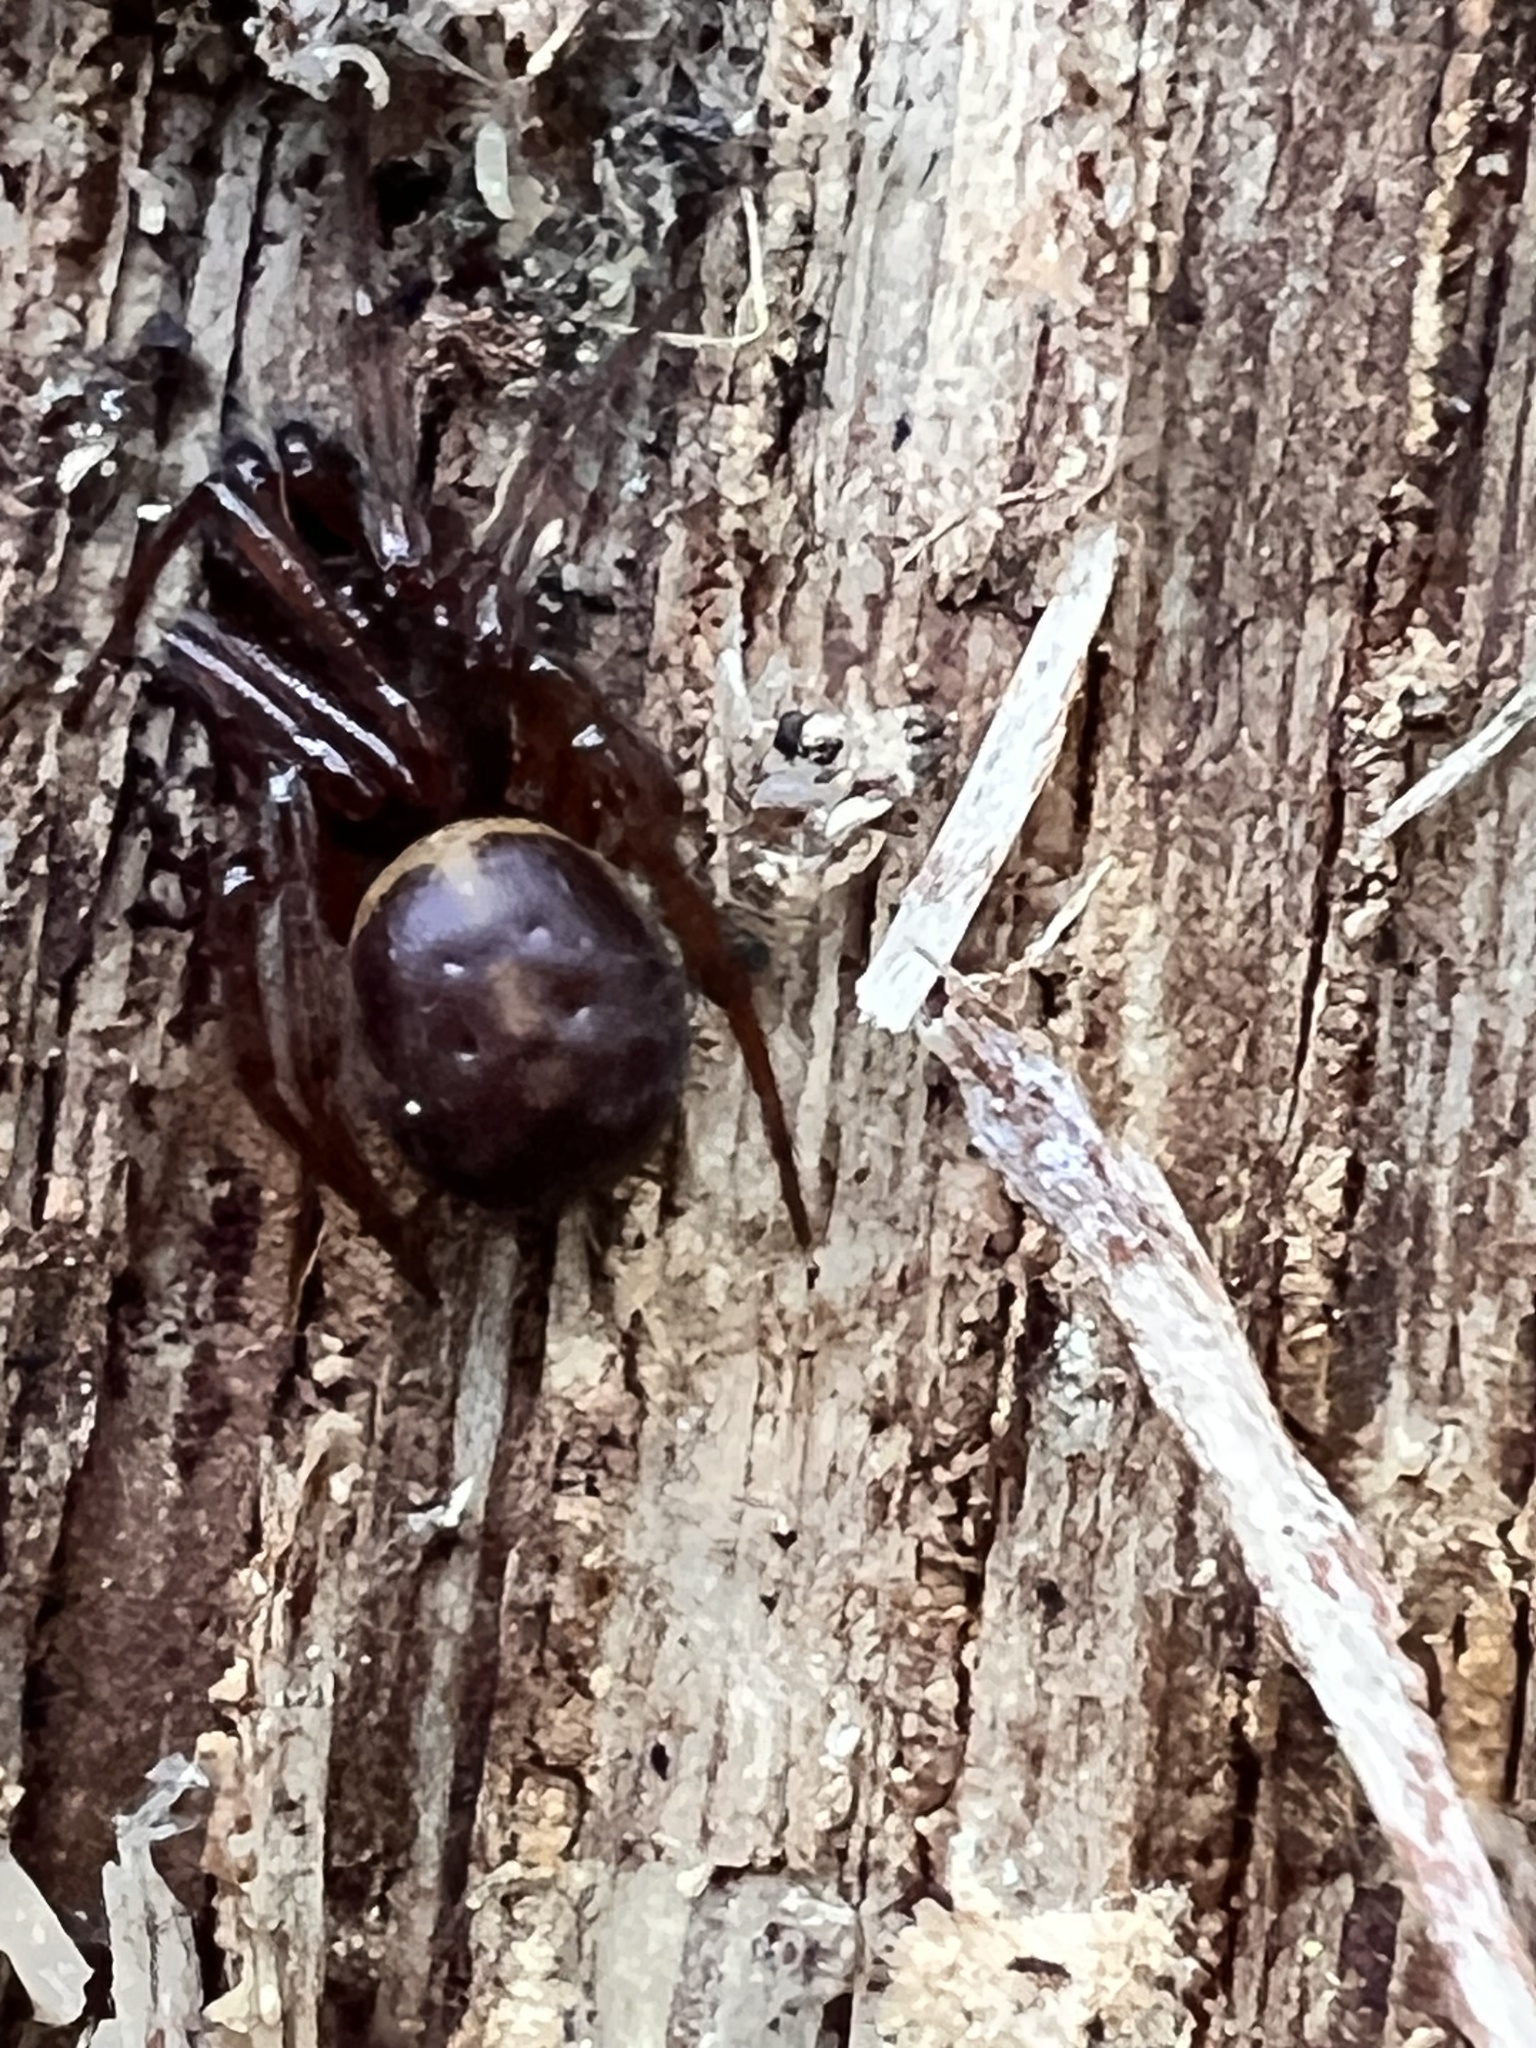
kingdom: Animalia
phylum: Arthropoda
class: Arachnida
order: Araneae
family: Theridiidae
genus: Steatoda
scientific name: Steatoda borealis
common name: Boreal combfoot
